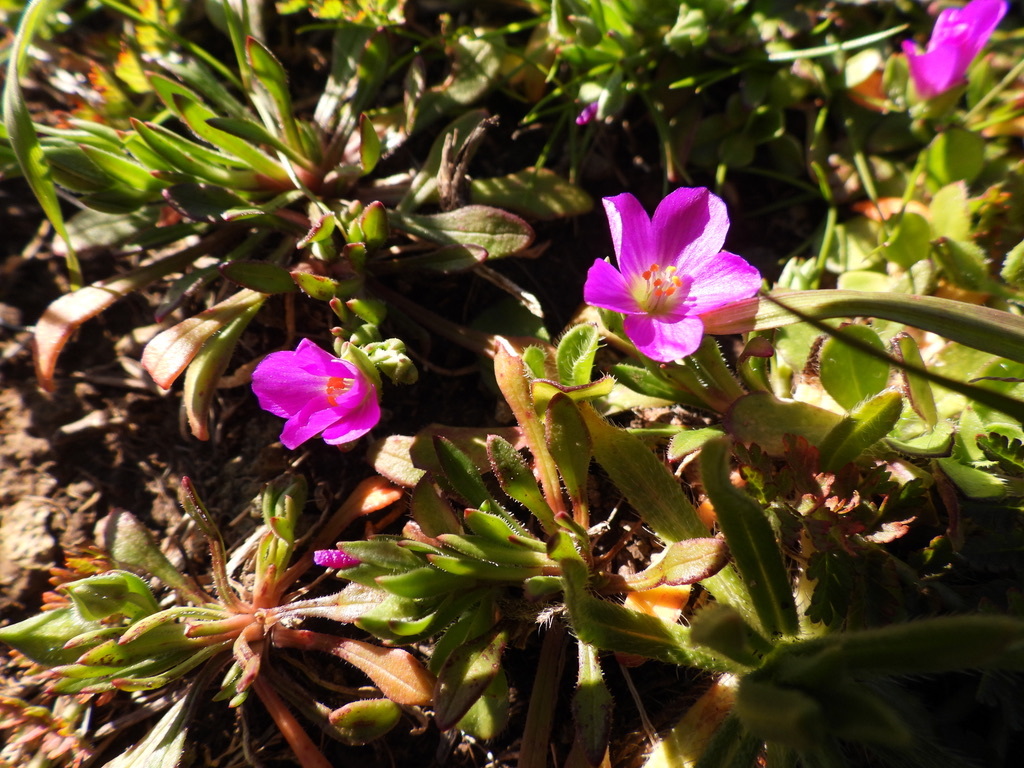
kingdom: Plantae
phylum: Tracheophyta
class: Magnoliopsida
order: Caryophyllales
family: Montiaceae
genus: Calandrinia
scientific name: Calandrinia menziesii
